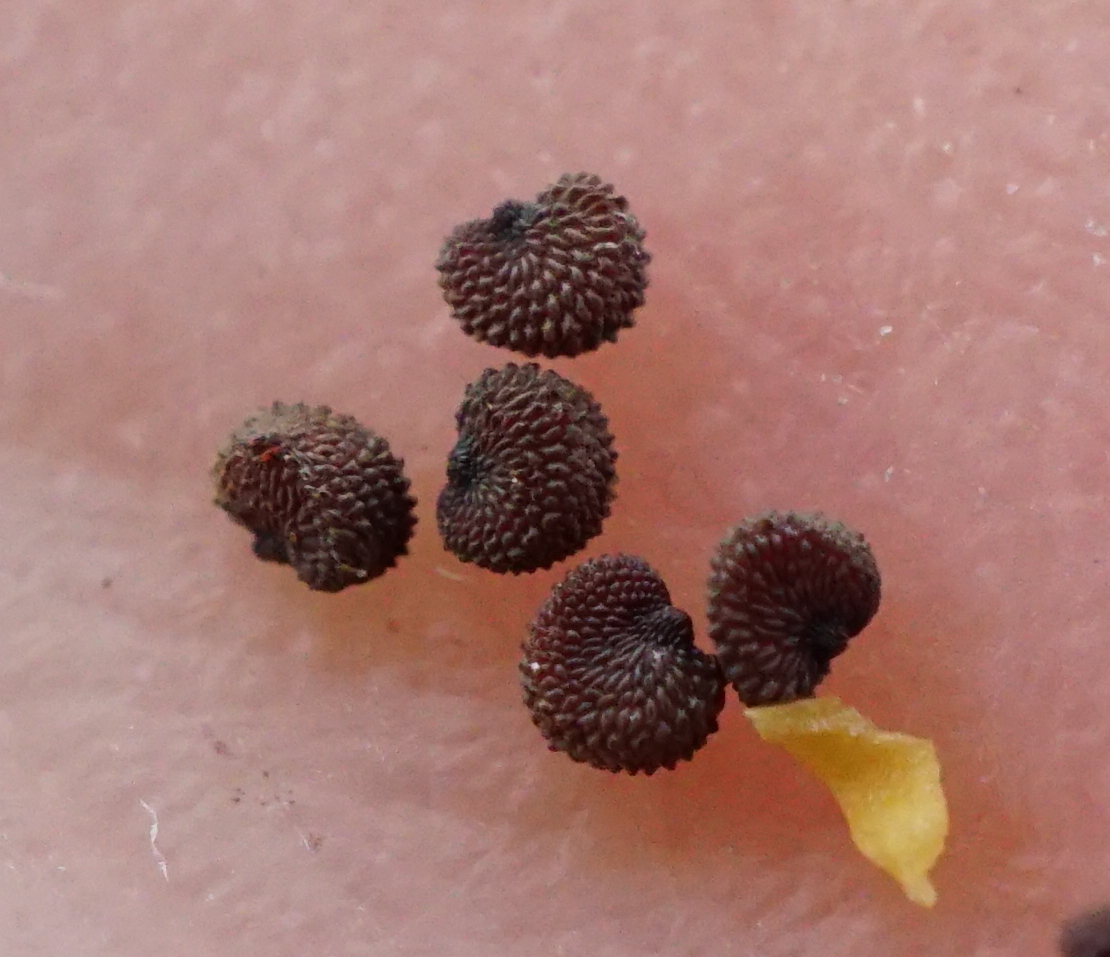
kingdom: Plantae
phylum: Tracheophyta
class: Magnoliopsida
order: Caryophyllales
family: Caryophyllaceae
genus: Silene
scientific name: Silene multiflora
